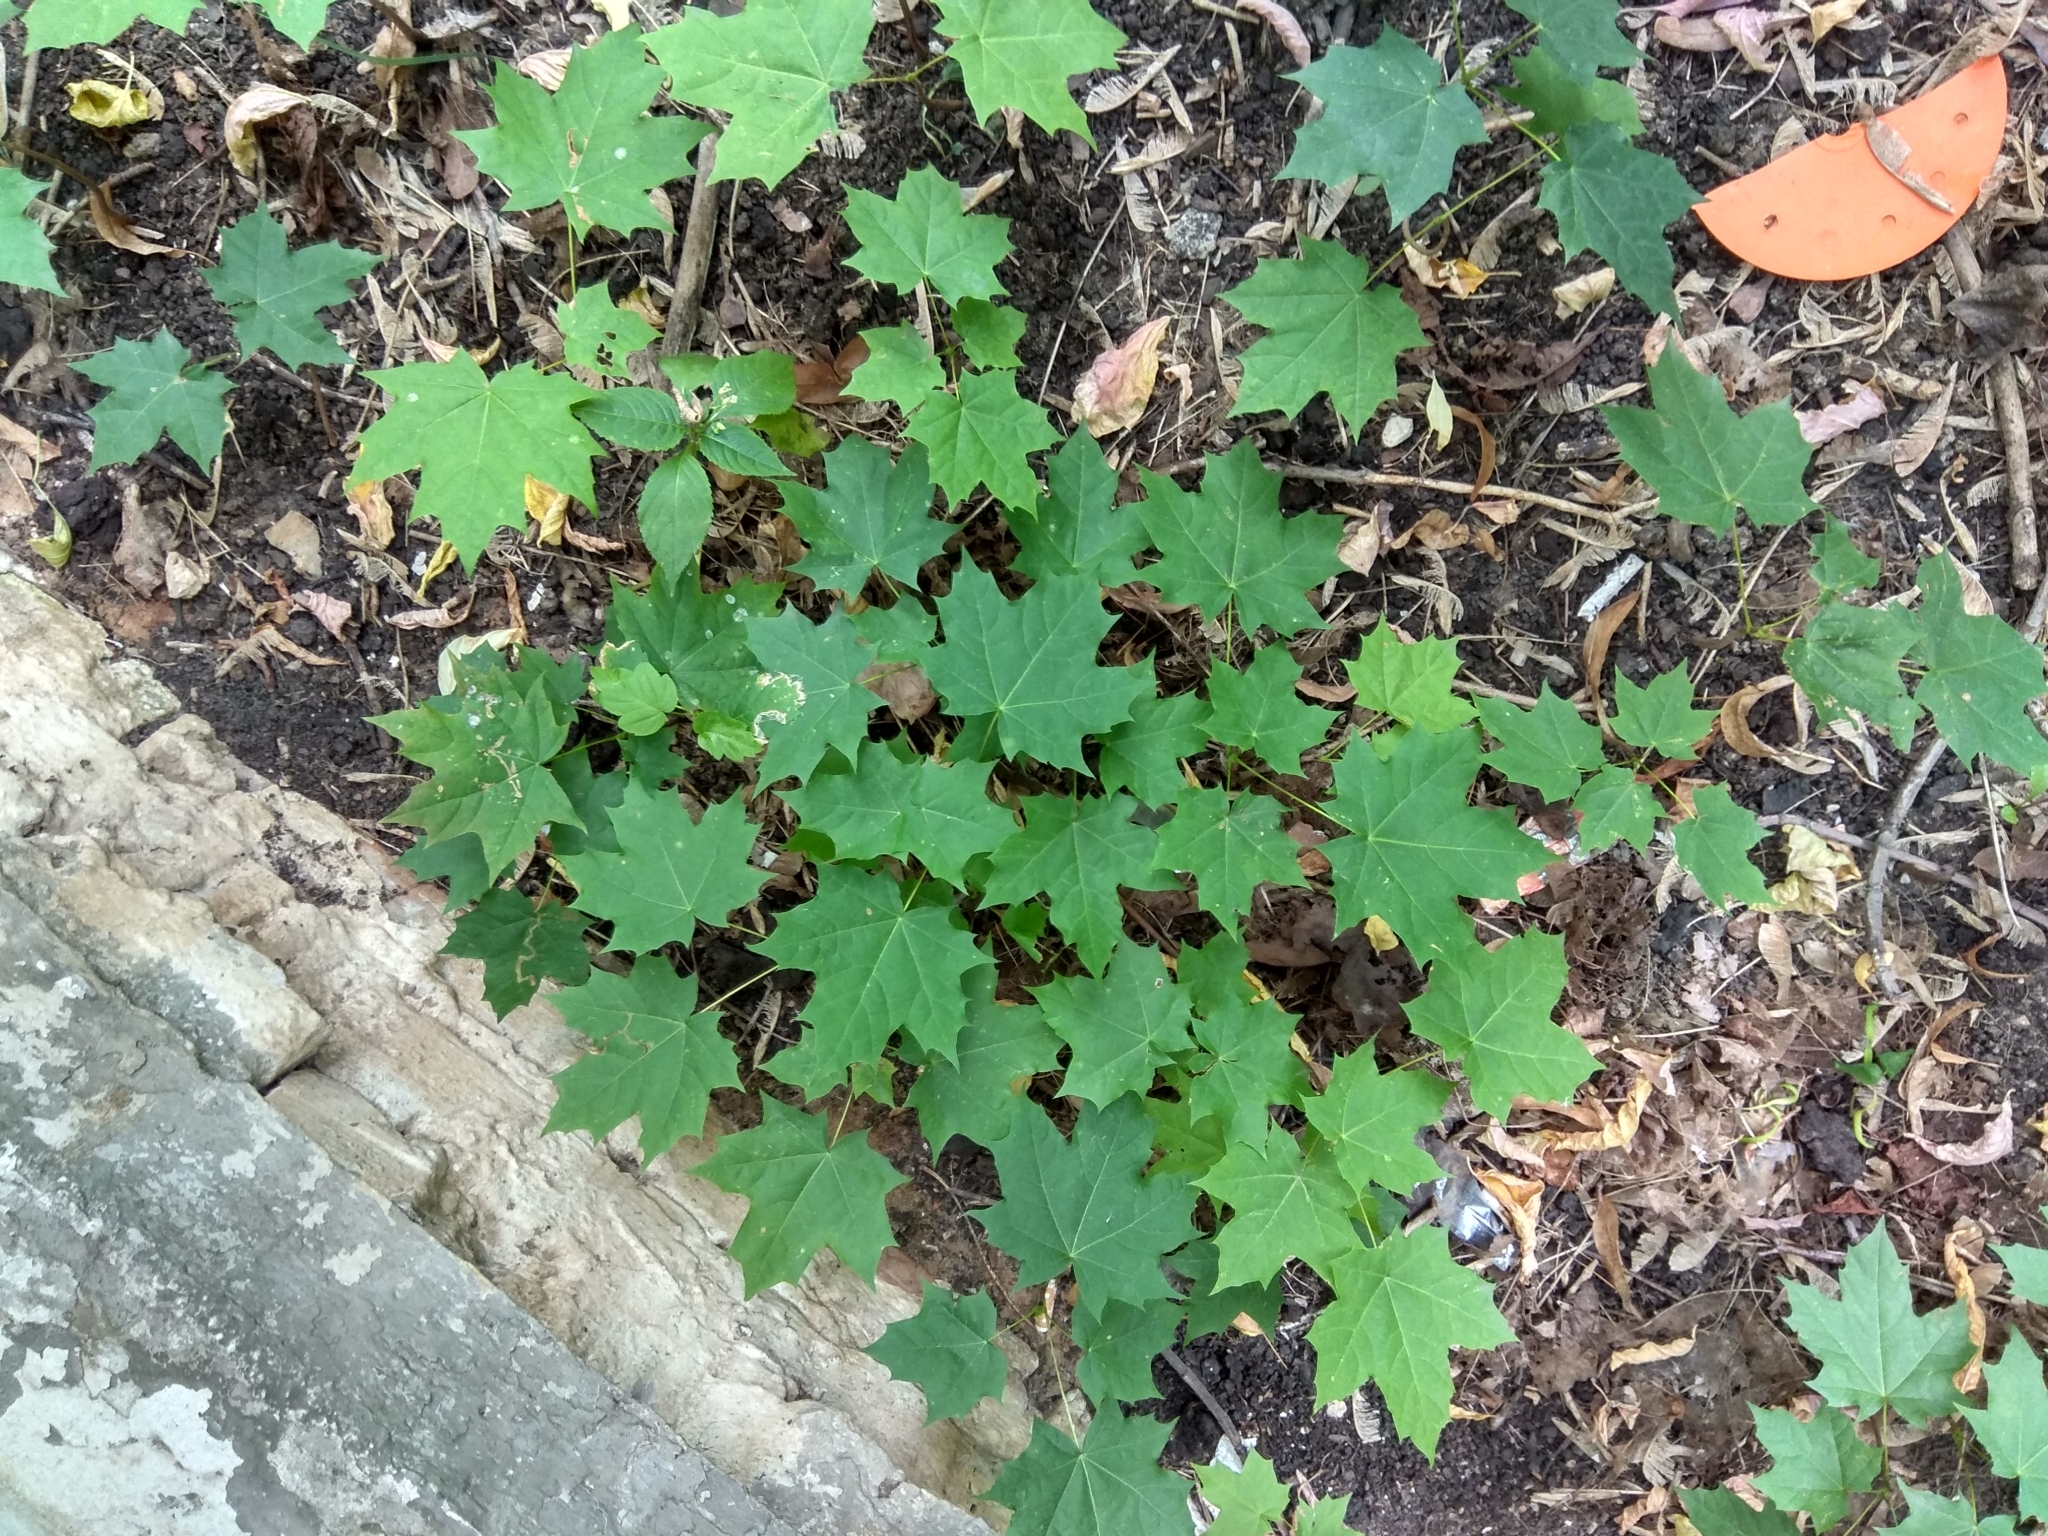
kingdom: Plantae
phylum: Tracheophyta
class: Magnoliopsida
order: Sapindales
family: Sapindaceae
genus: Acer
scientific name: Acer platanoides
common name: Norway maple
